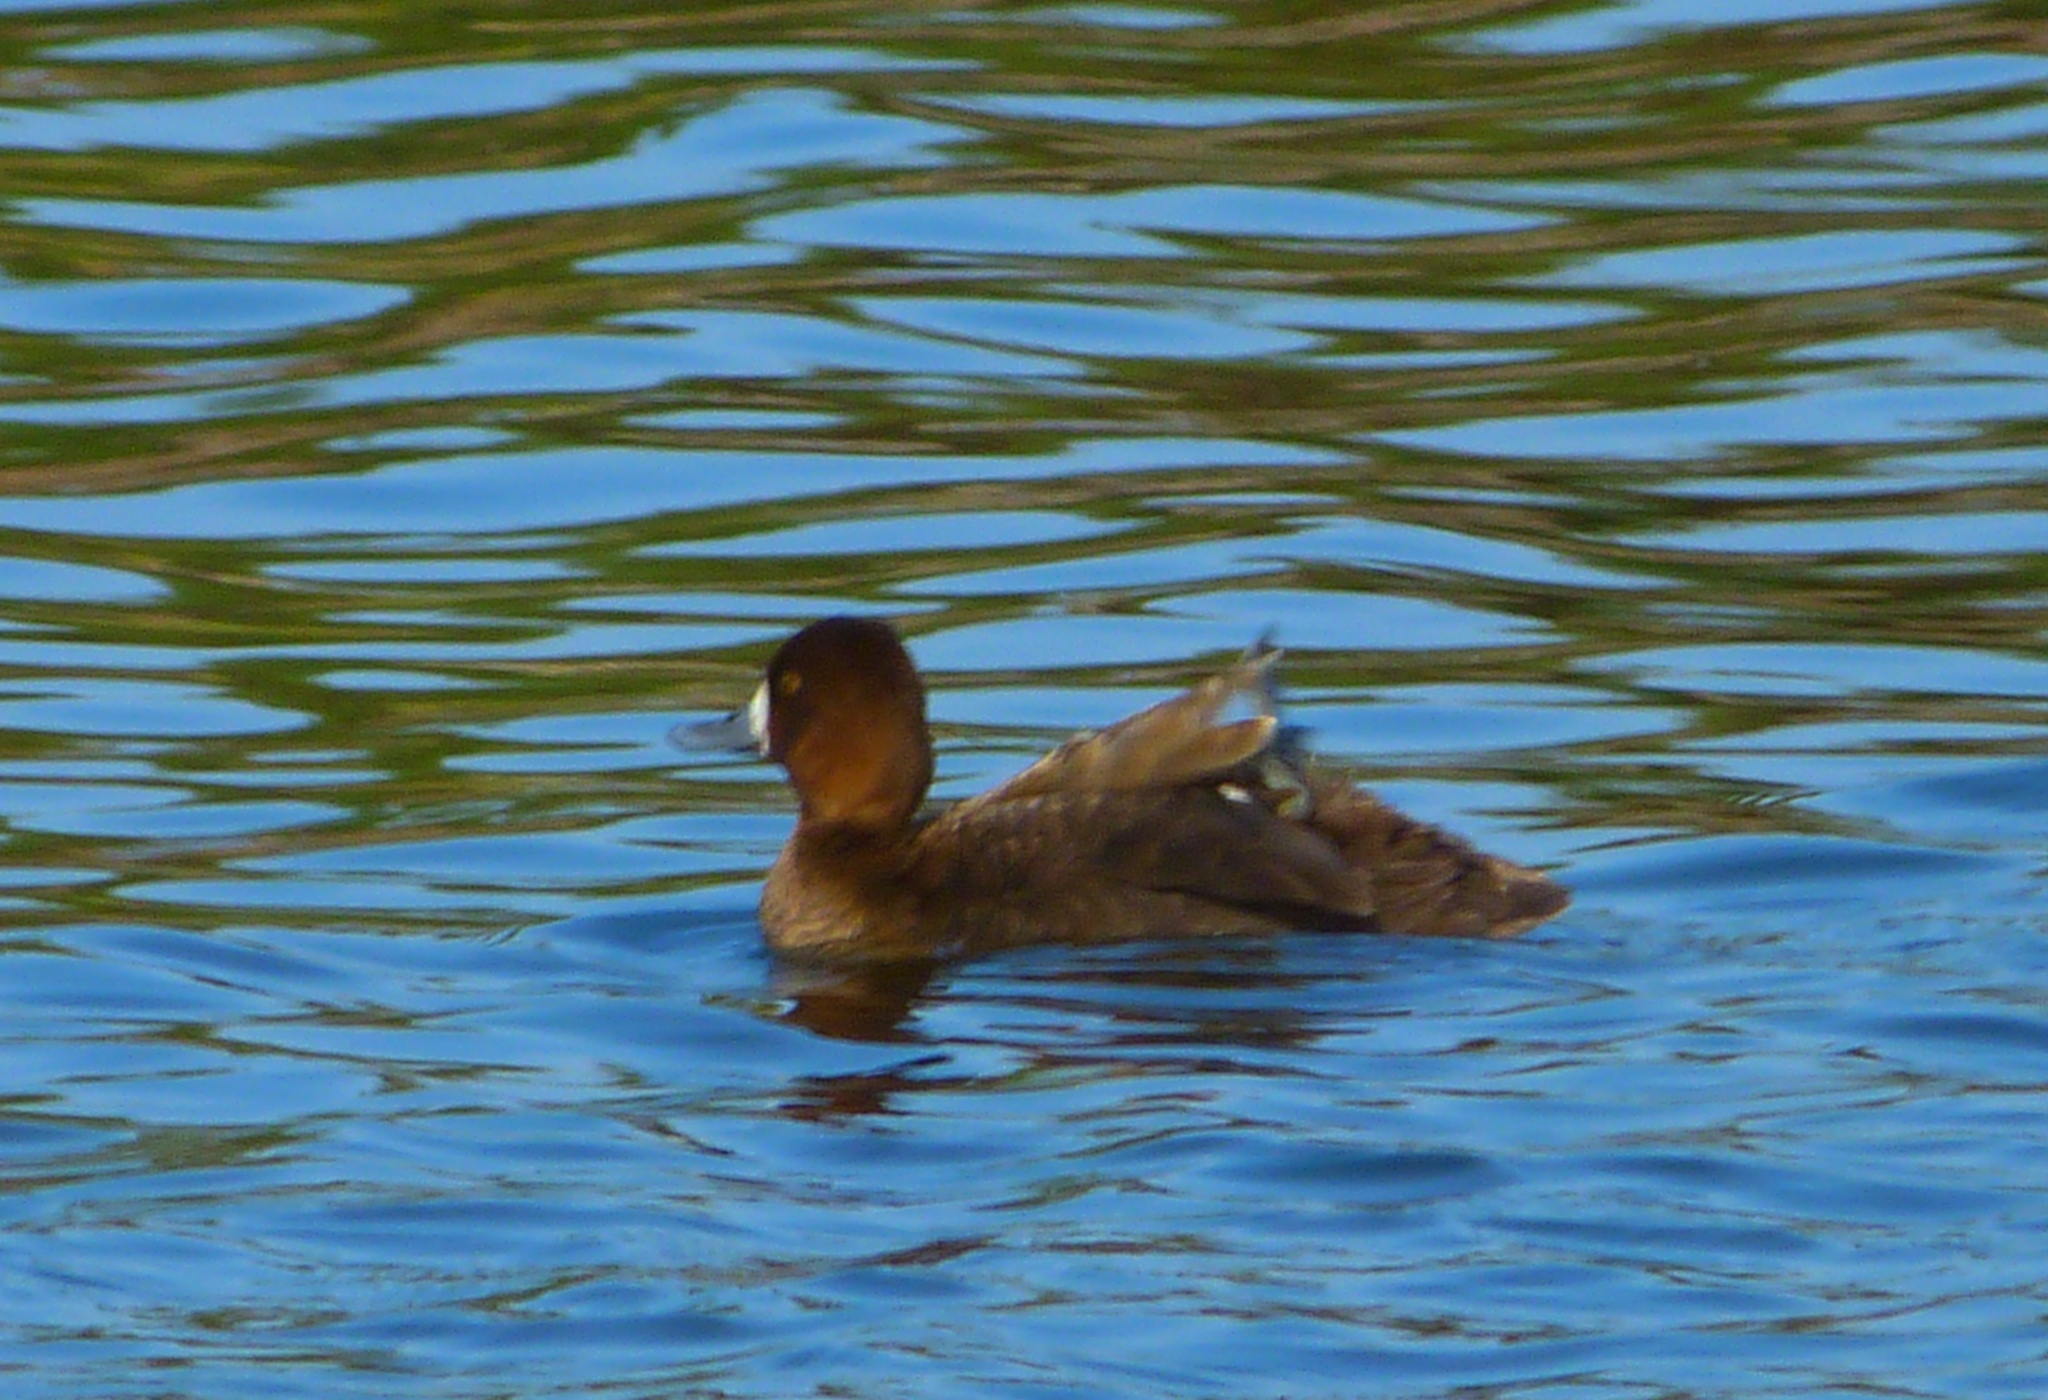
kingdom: Animalia
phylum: Chordata
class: Aves
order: Anseriformes
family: Anatidae
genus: Aythya
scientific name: Aythya affinis
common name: Lesser scaup
